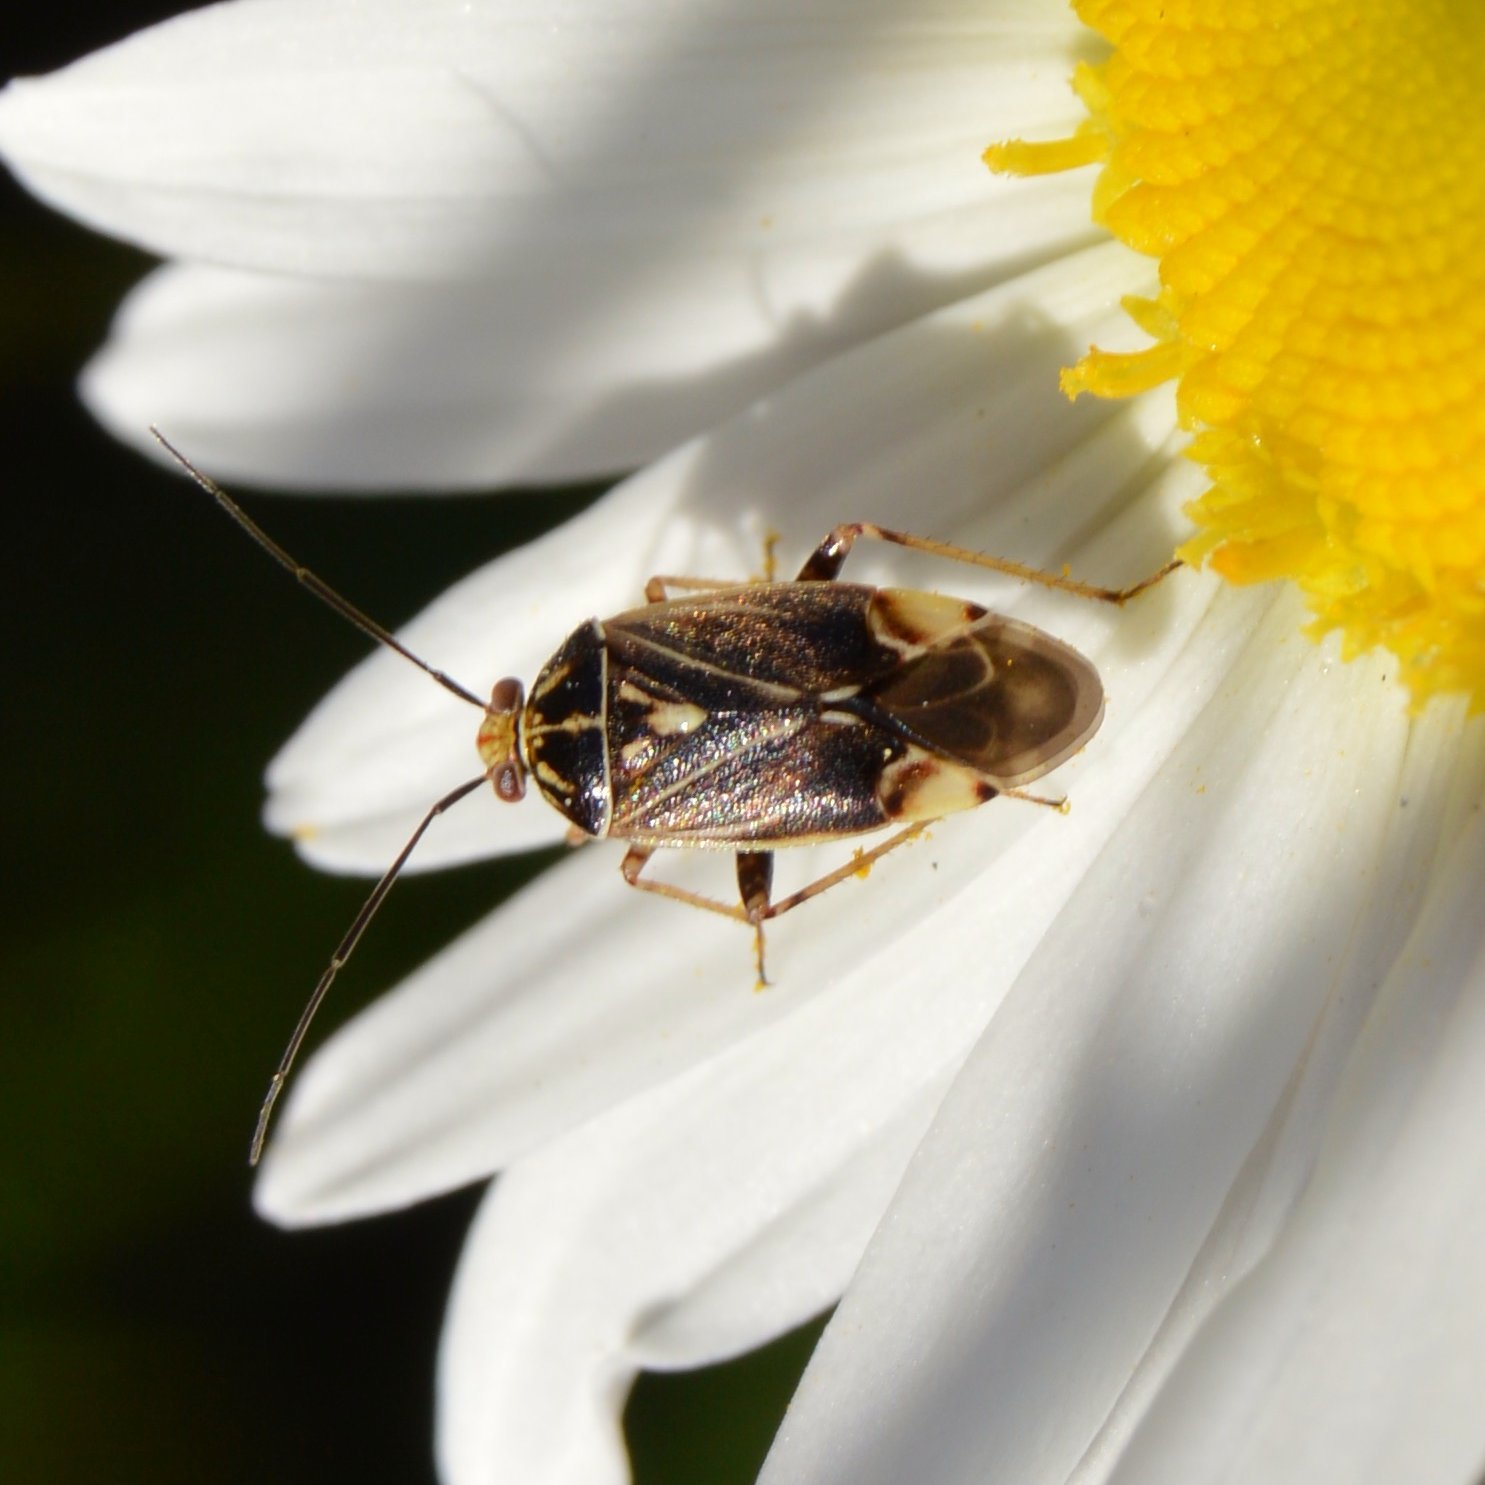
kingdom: Animalia
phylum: Arthropoda
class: Insecta
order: Hemiptera
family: Miridae
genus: Lygus
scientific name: Lygus lineolaris
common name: North american tarnished plant bug
